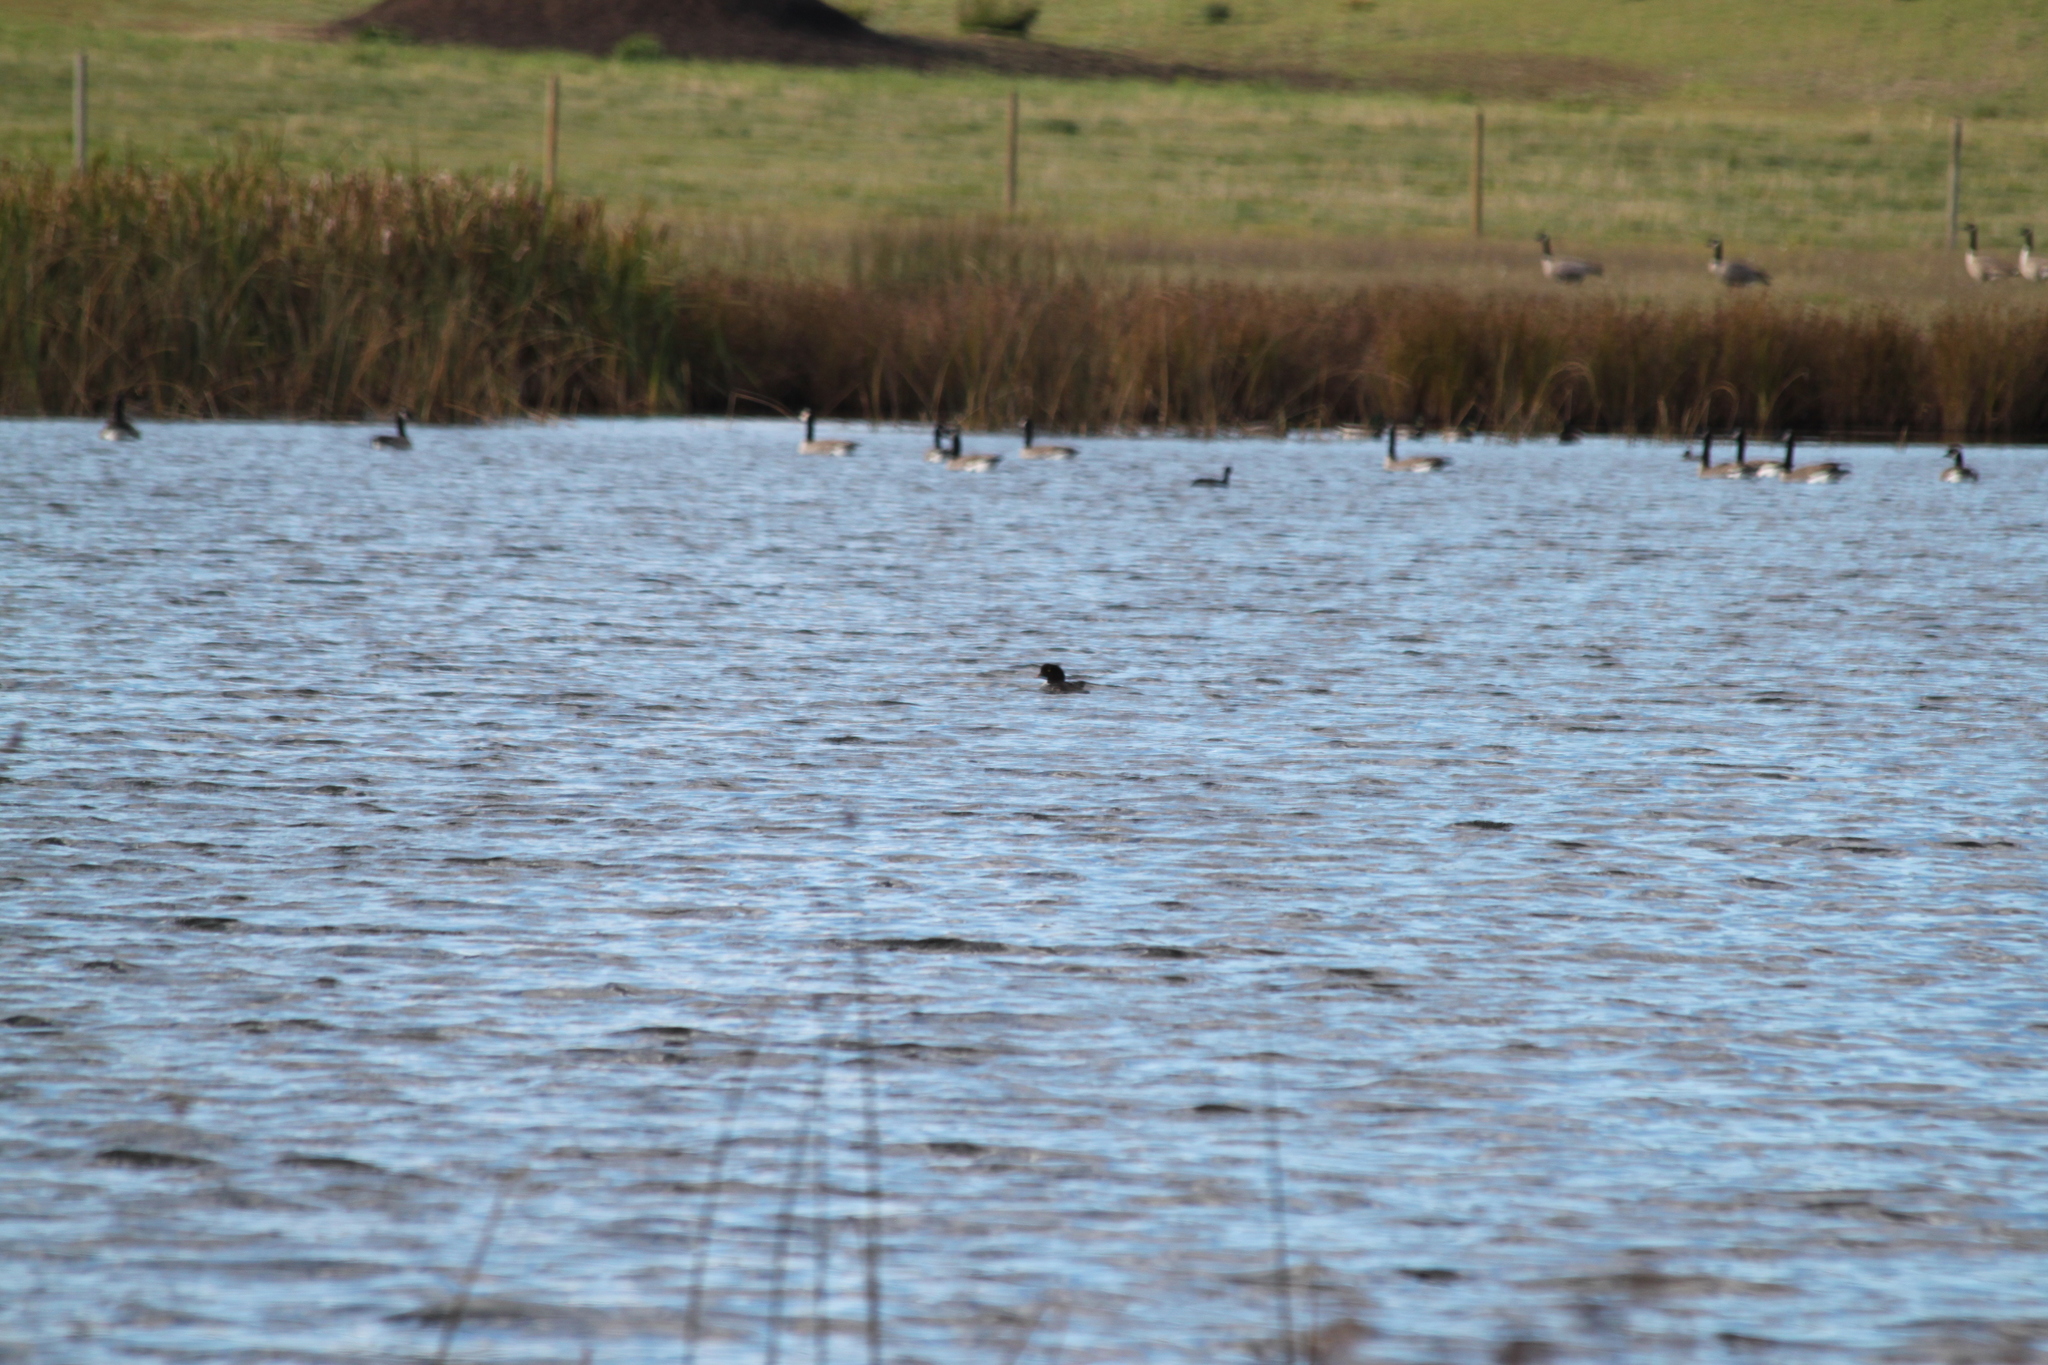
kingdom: Animalia
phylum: Chordata
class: Aves
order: Anseriformes
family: Anatidae
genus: Bucephala
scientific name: Bucephala islandica
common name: Barrow's goldeneye
